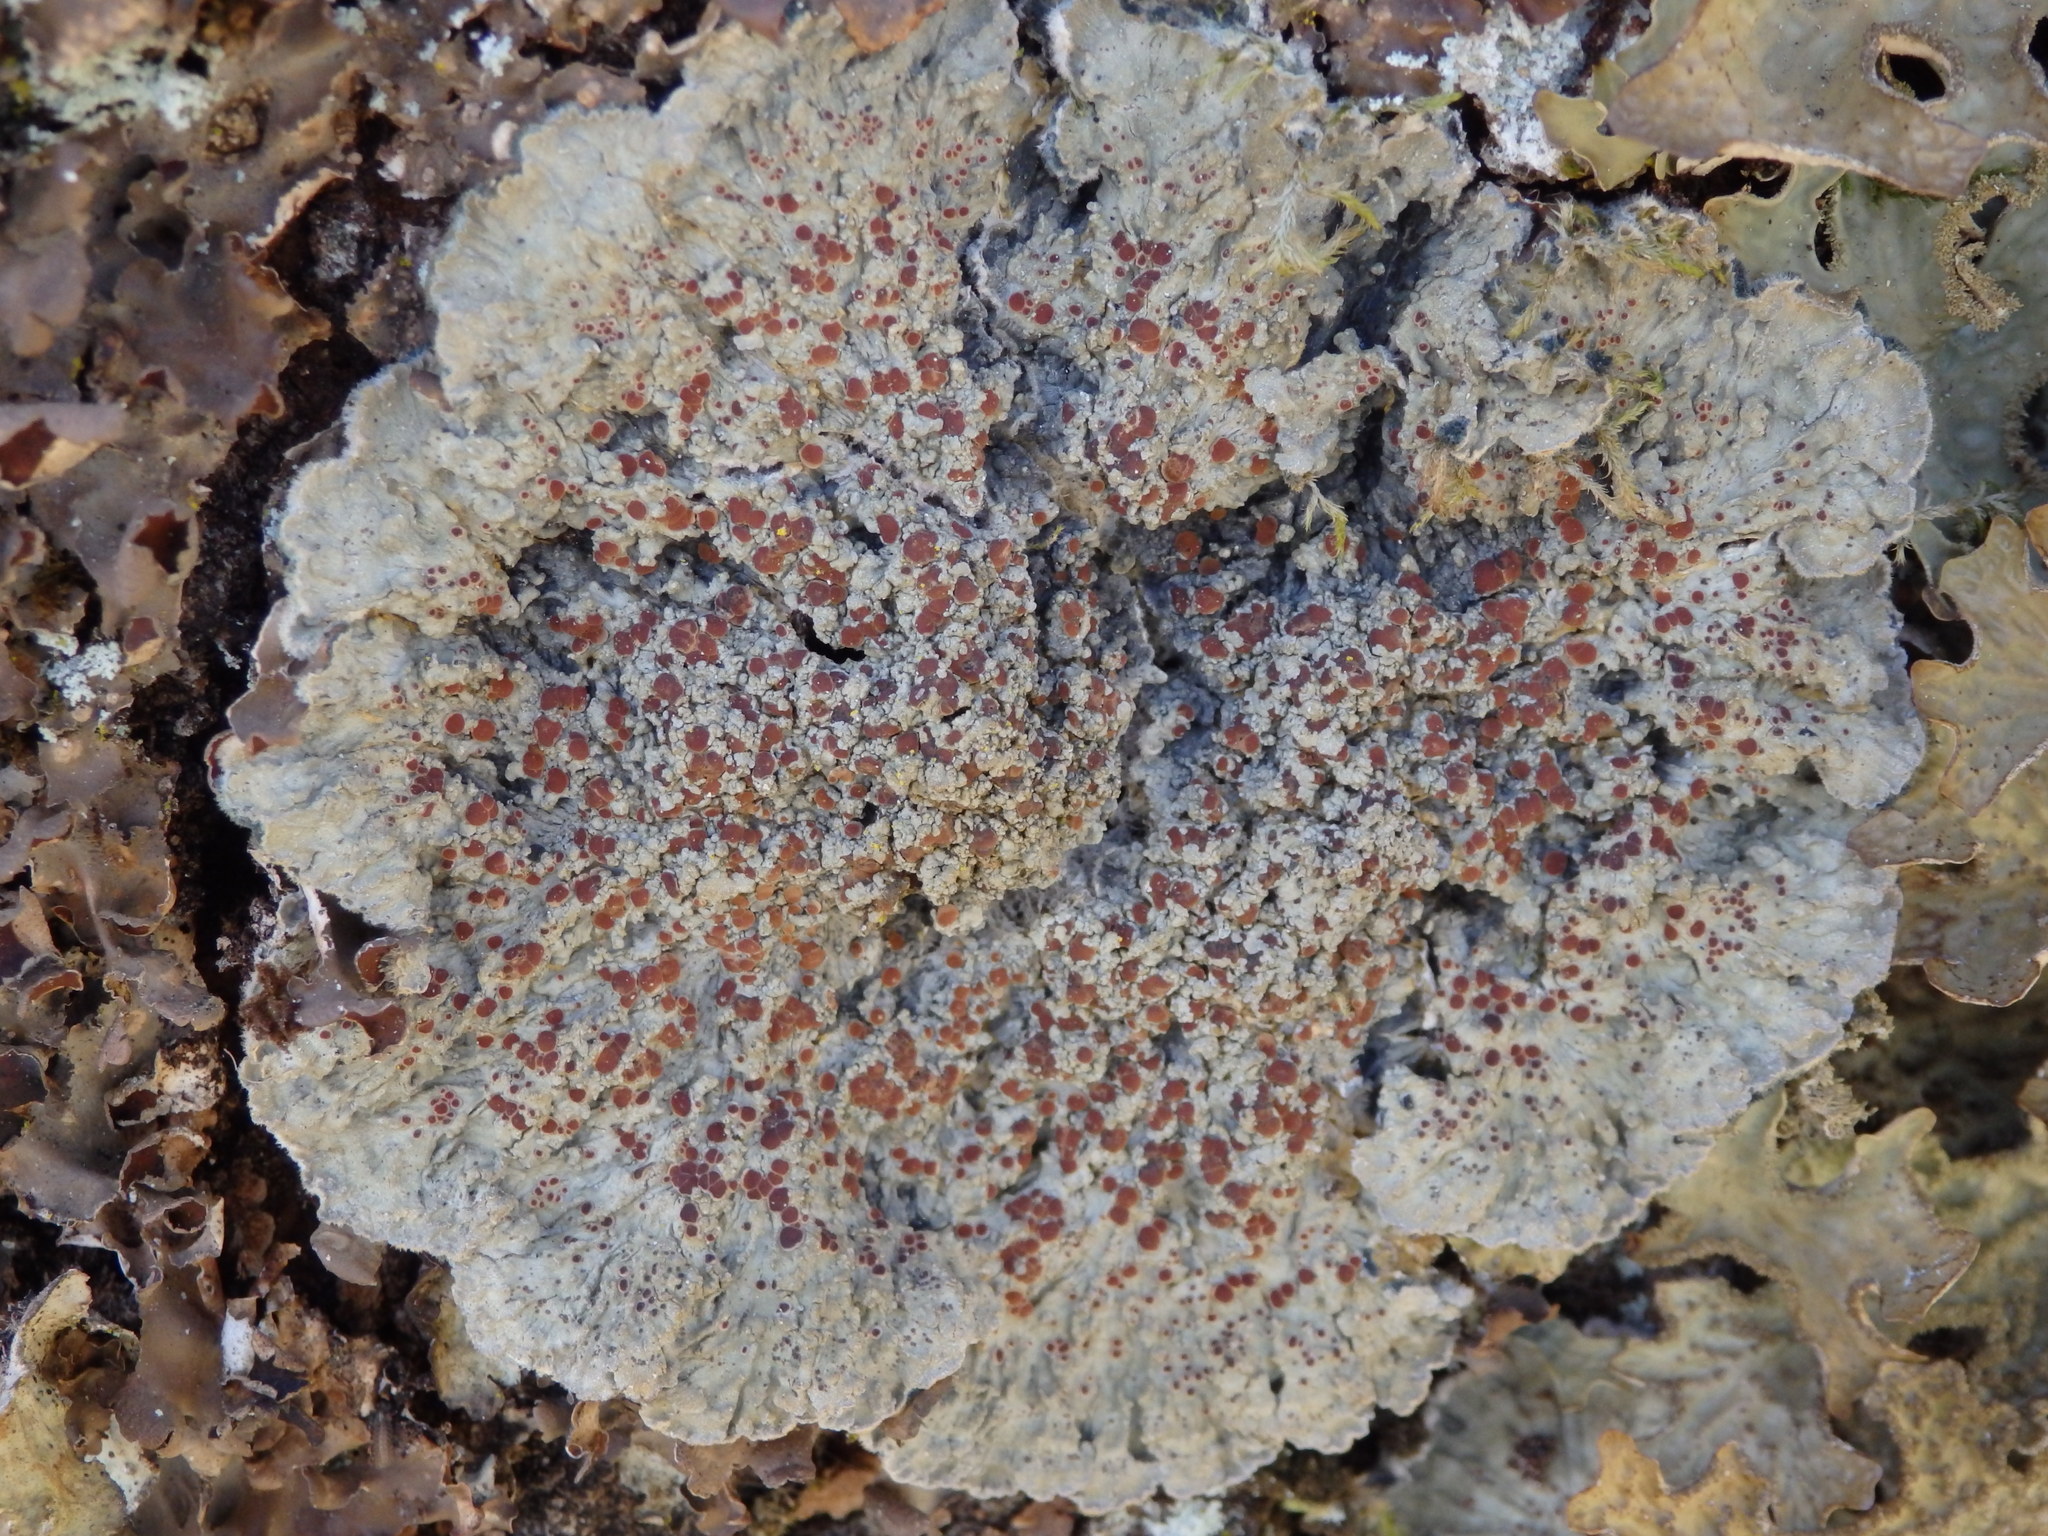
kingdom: Fungi
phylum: Ascomycota
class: Lecanoromycetes
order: Peltigerales
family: Pannariaceae
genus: Pectenia
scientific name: Pectenia plumbea
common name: Bladder stalks
